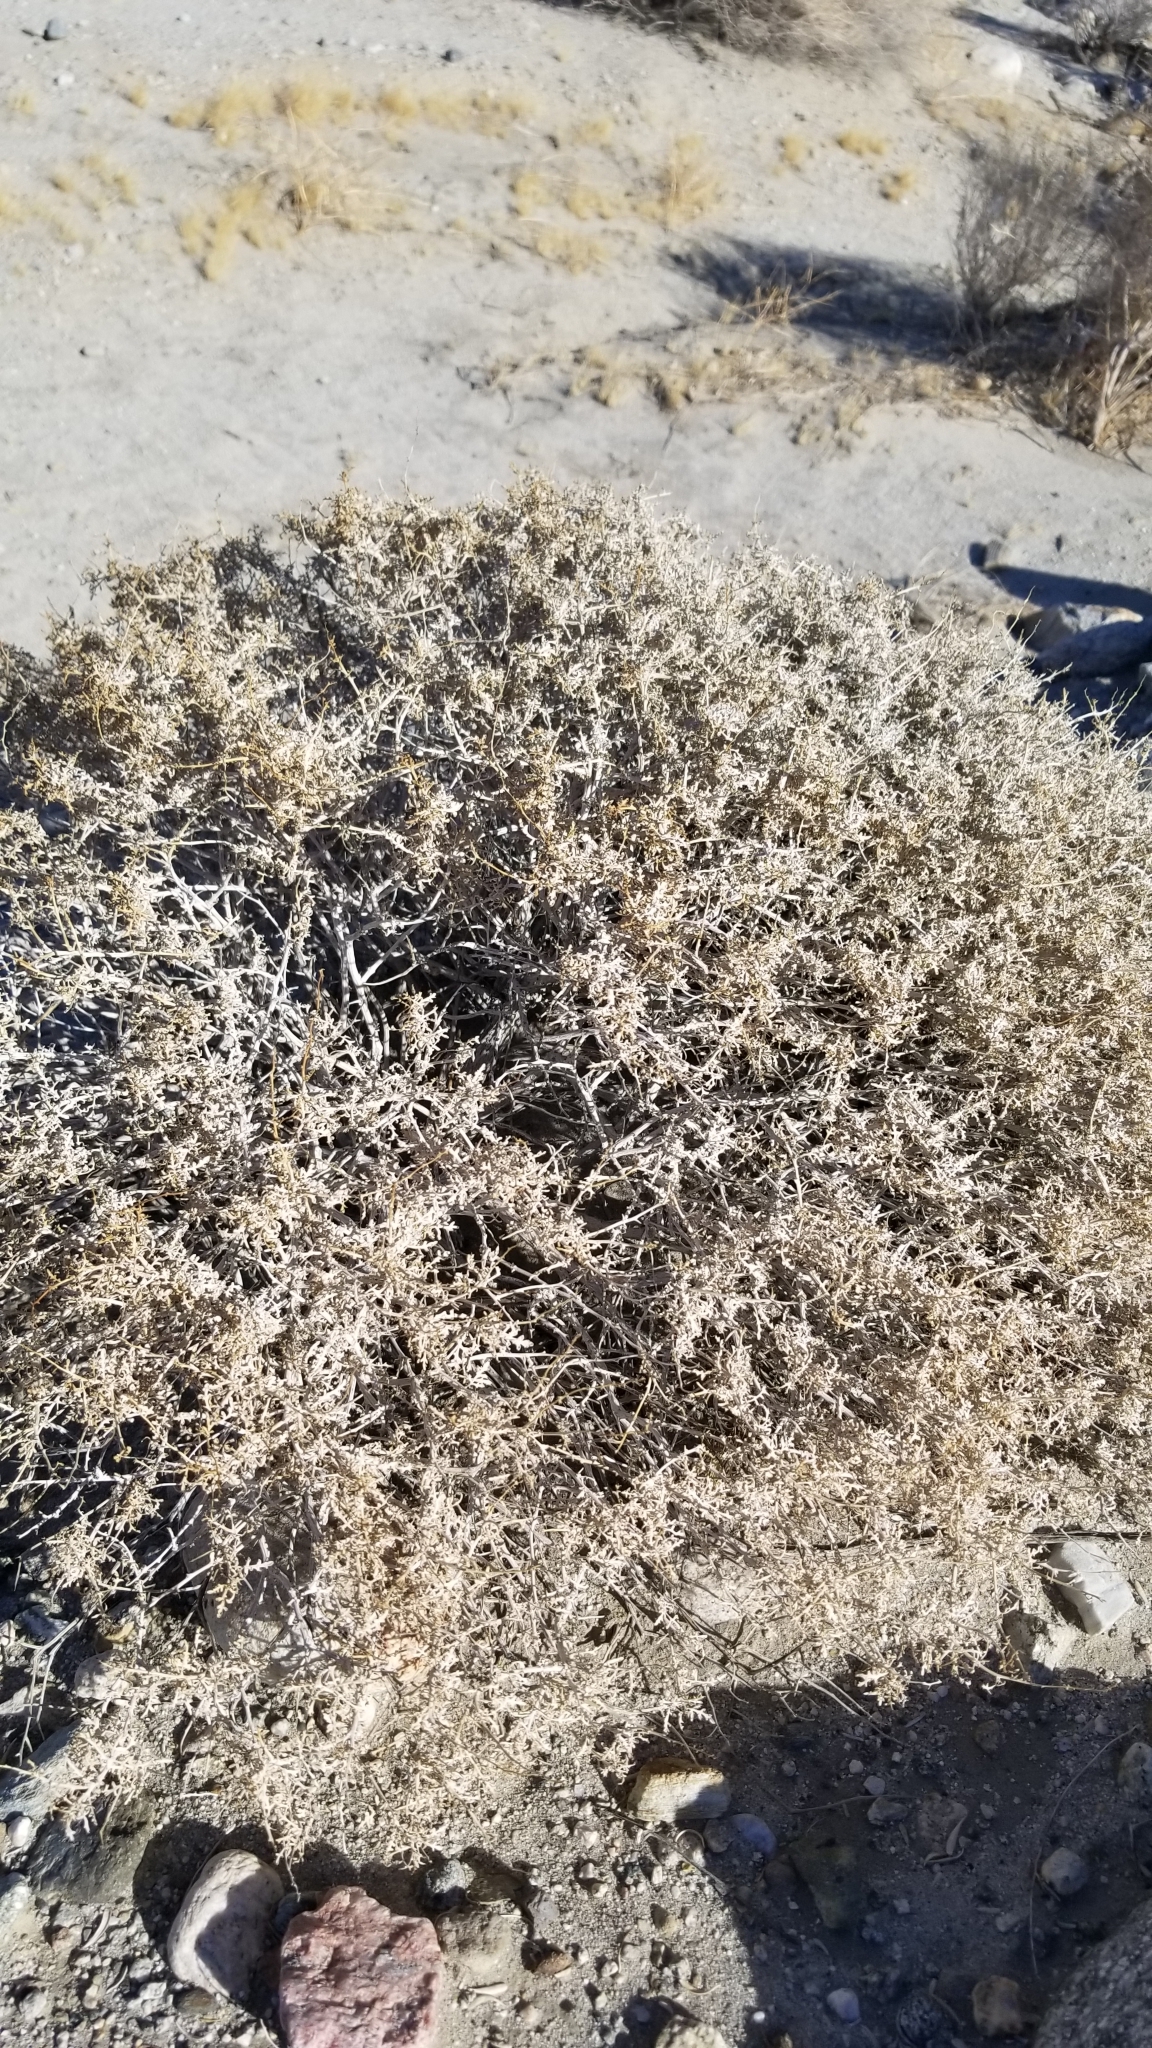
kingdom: Plantae
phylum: Tracheophyta
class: Magnoliopsida
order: Asterales
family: Asteraceae
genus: Ambrosia
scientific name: Ambrosia dumosa
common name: Bur-sage
